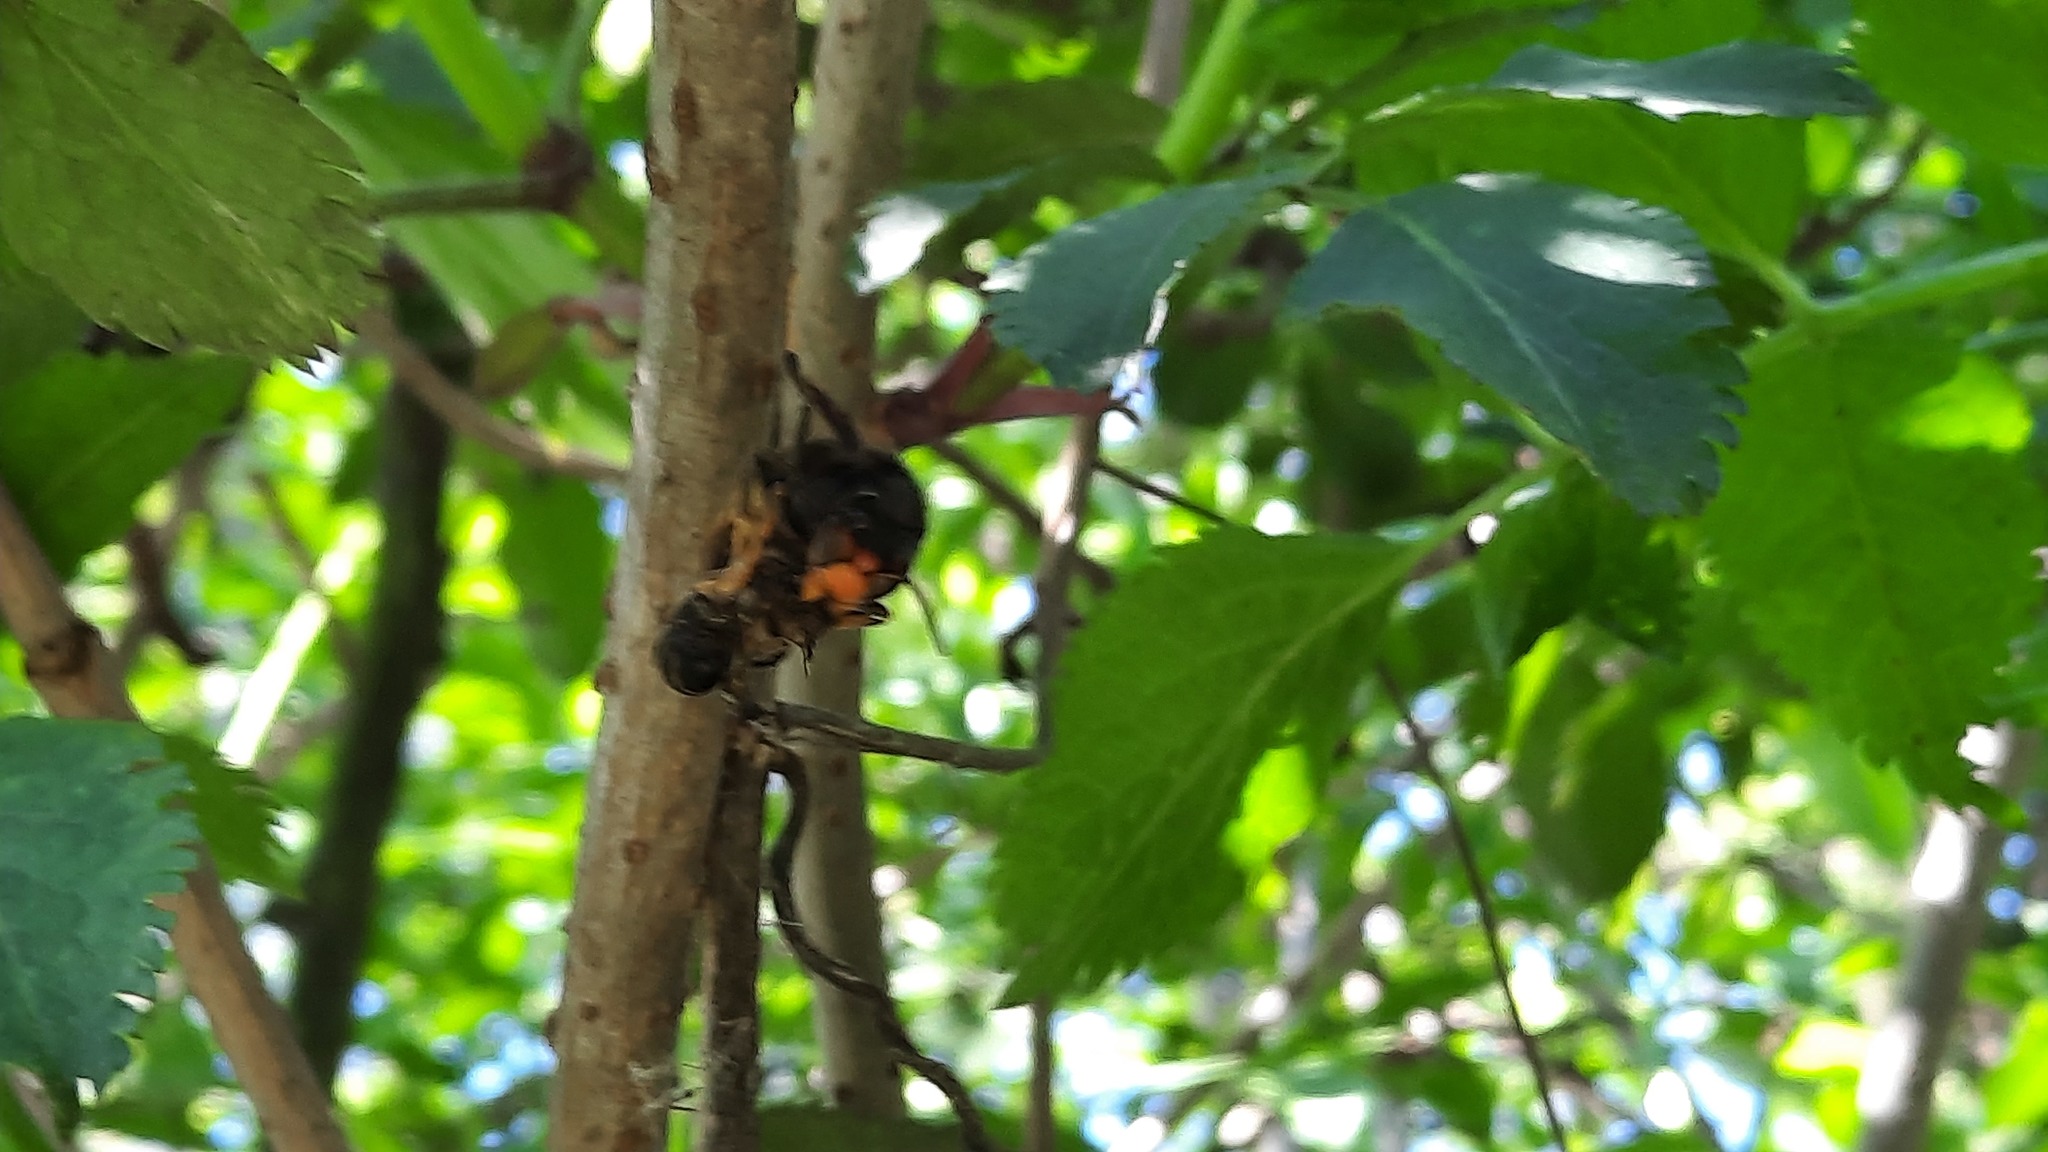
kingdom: Animalia
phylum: Arthropoda
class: Insecta
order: Hymenoptera
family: Vespidae
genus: Vespa
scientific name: Vespa velutina
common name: Asian hornet
